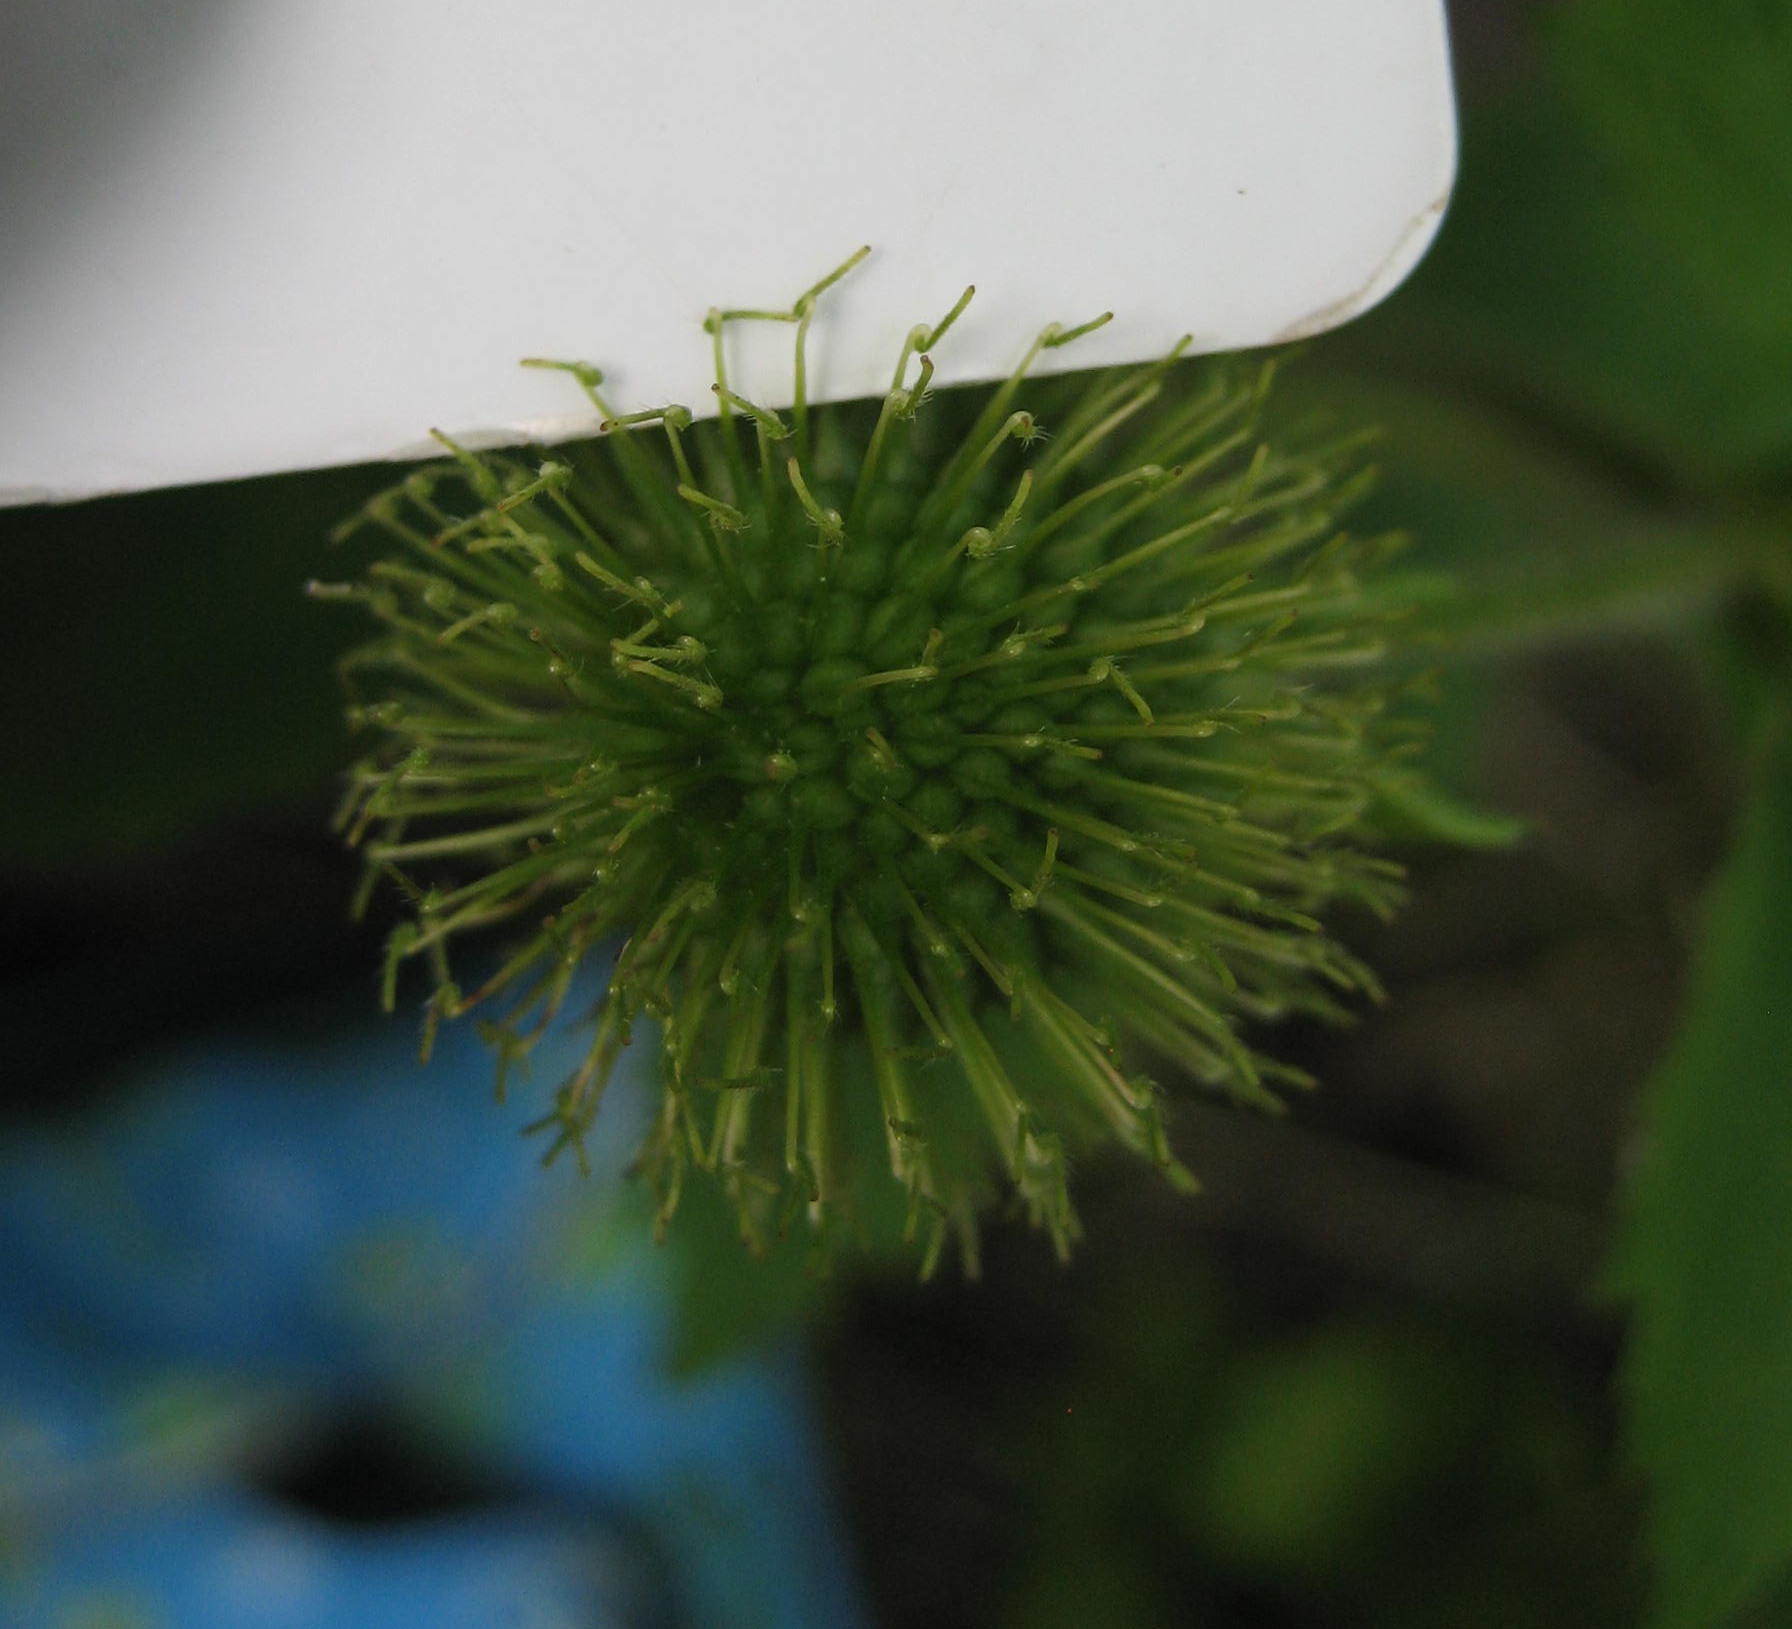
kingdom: Plantae
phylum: Tracheophyta
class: Magnoliopsida
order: Rosales
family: Rosaceae
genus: Geum
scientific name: Geum laciniatum
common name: Rough avens
